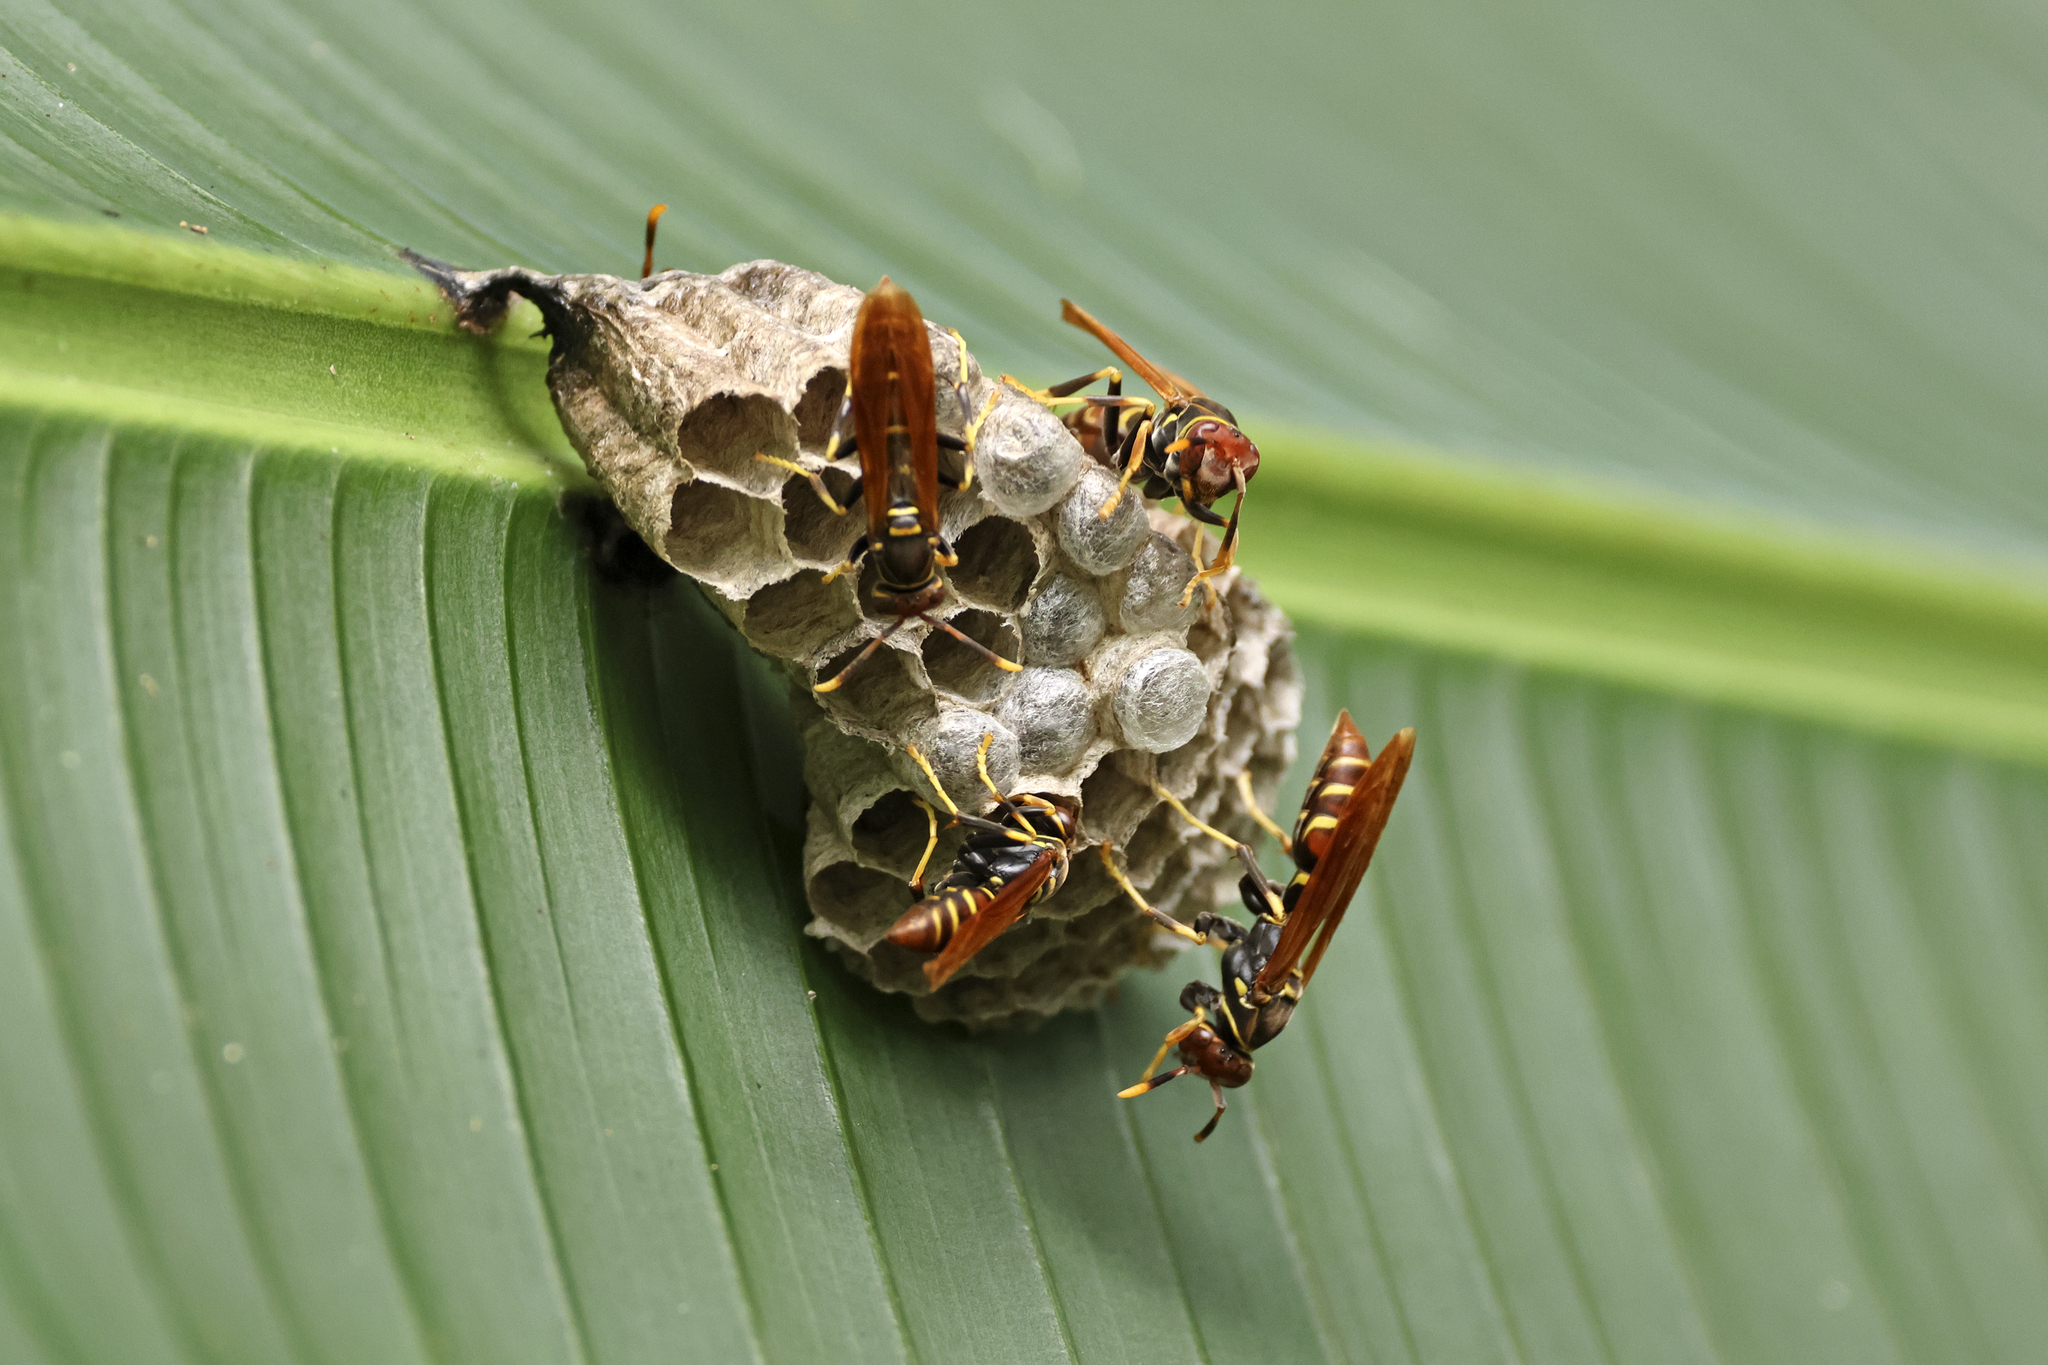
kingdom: Animalia
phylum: Arthropoda
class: Insecta
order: Hymenoptera
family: Eumenidae
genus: Polistes
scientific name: Polistes crinitus
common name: Jack spaniard
